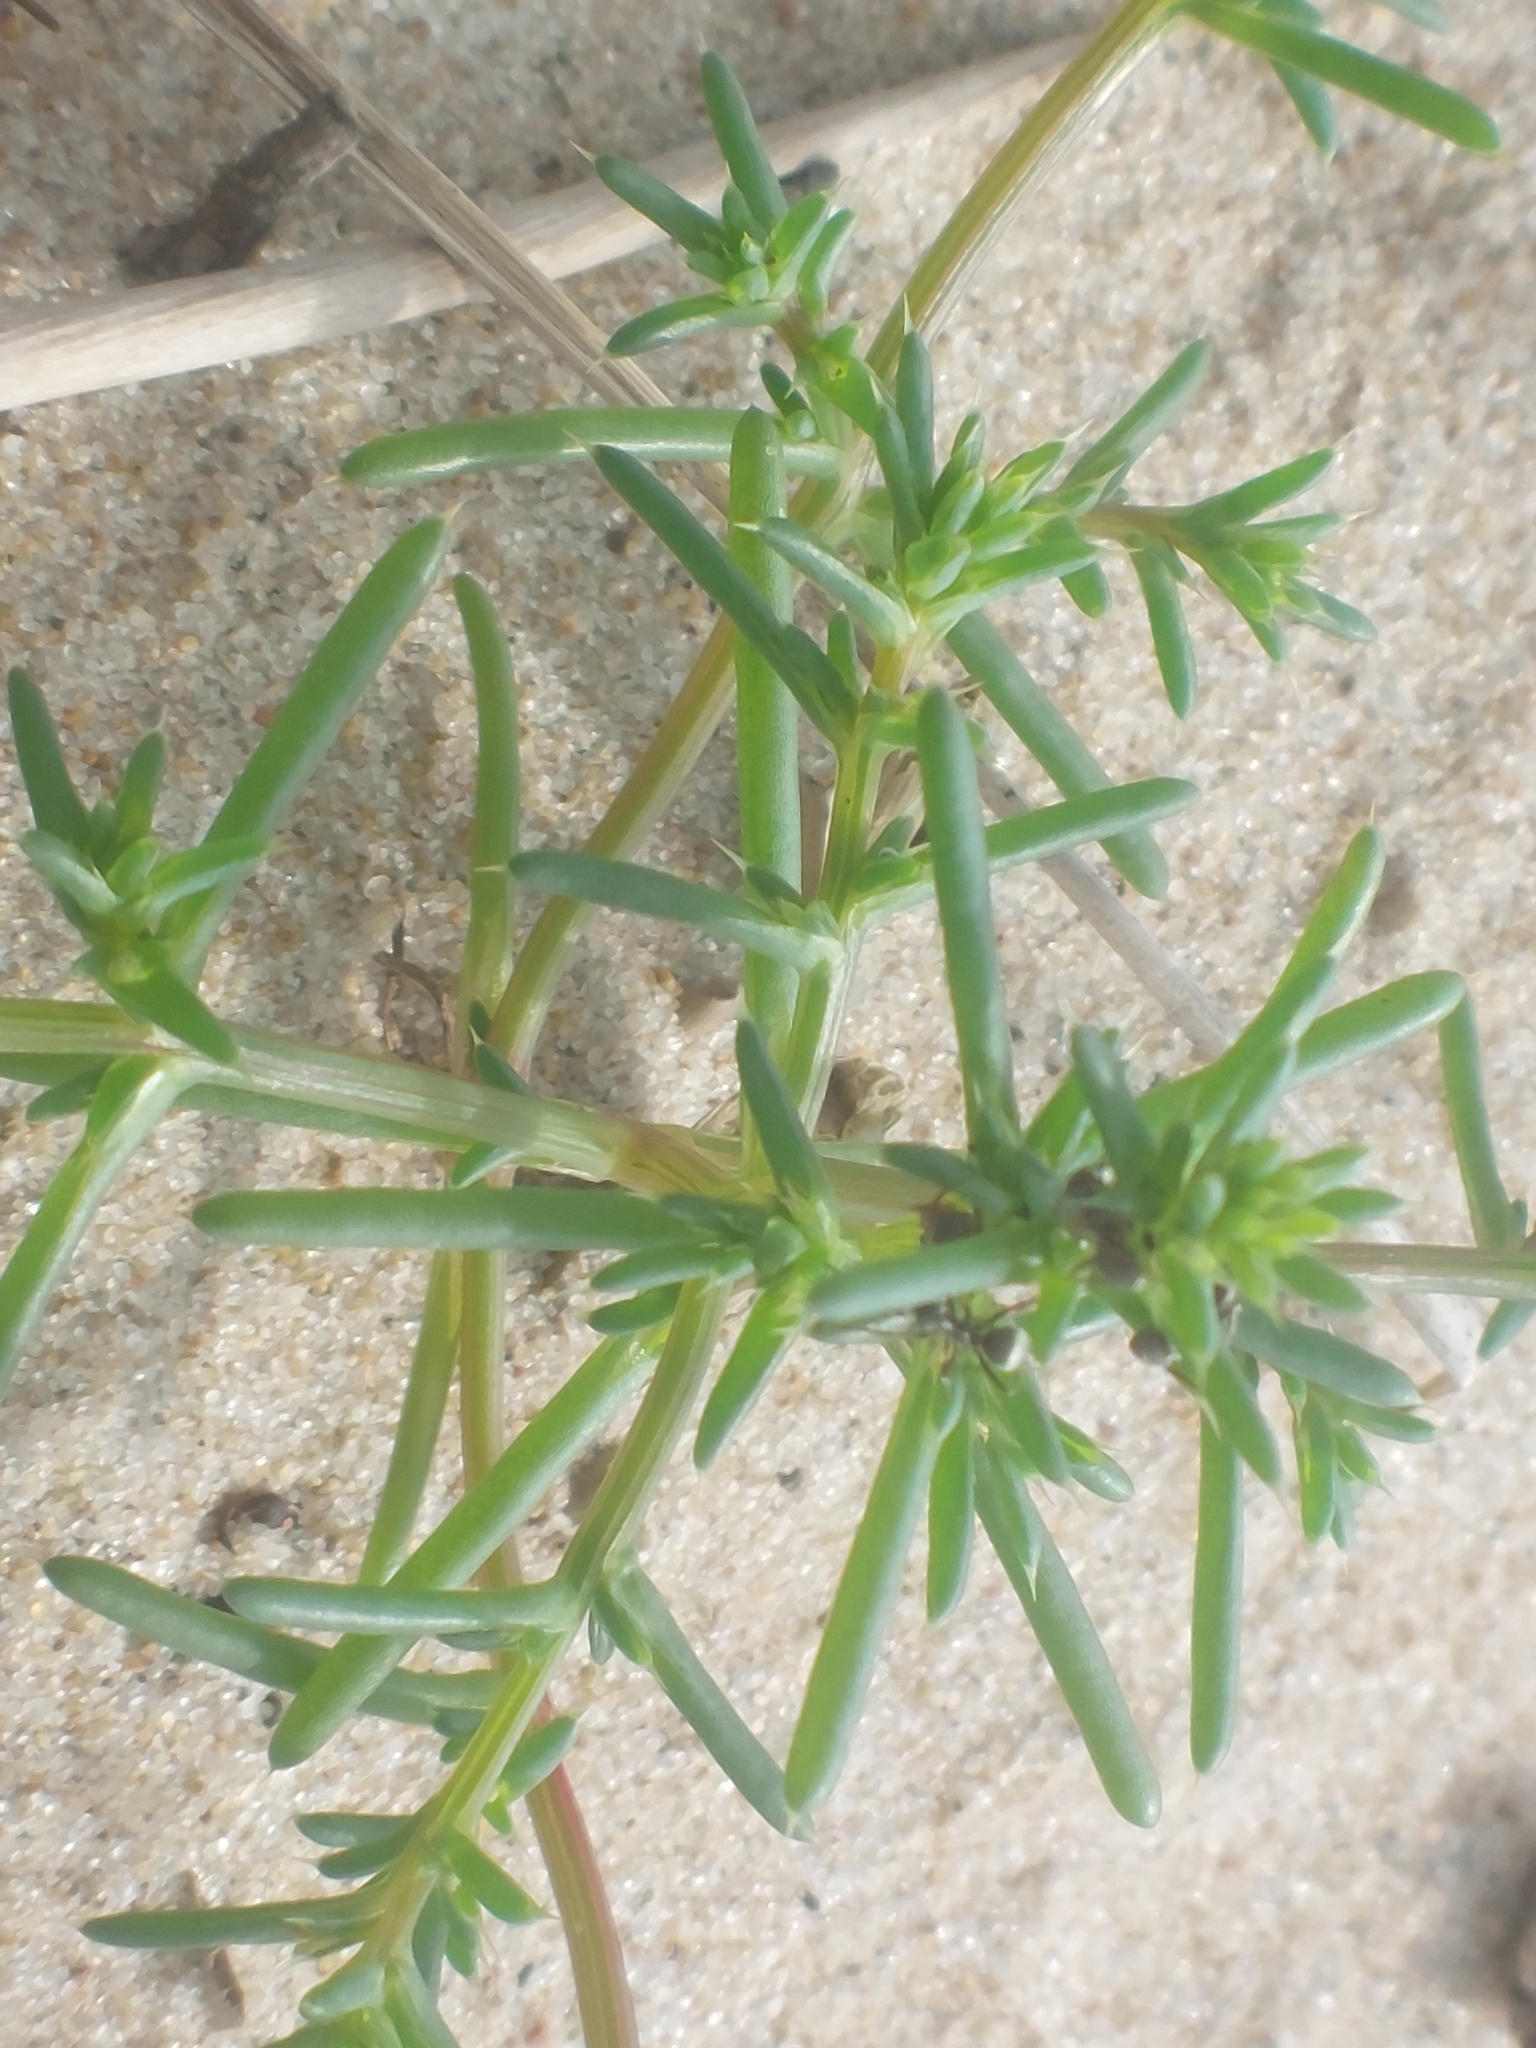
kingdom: Plantae
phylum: Tracheophyta
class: Magnoliopsida
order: Caryophyllales
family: Amaranthaceae
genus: Salsola
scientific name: Salsola kali
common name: Saltwort
